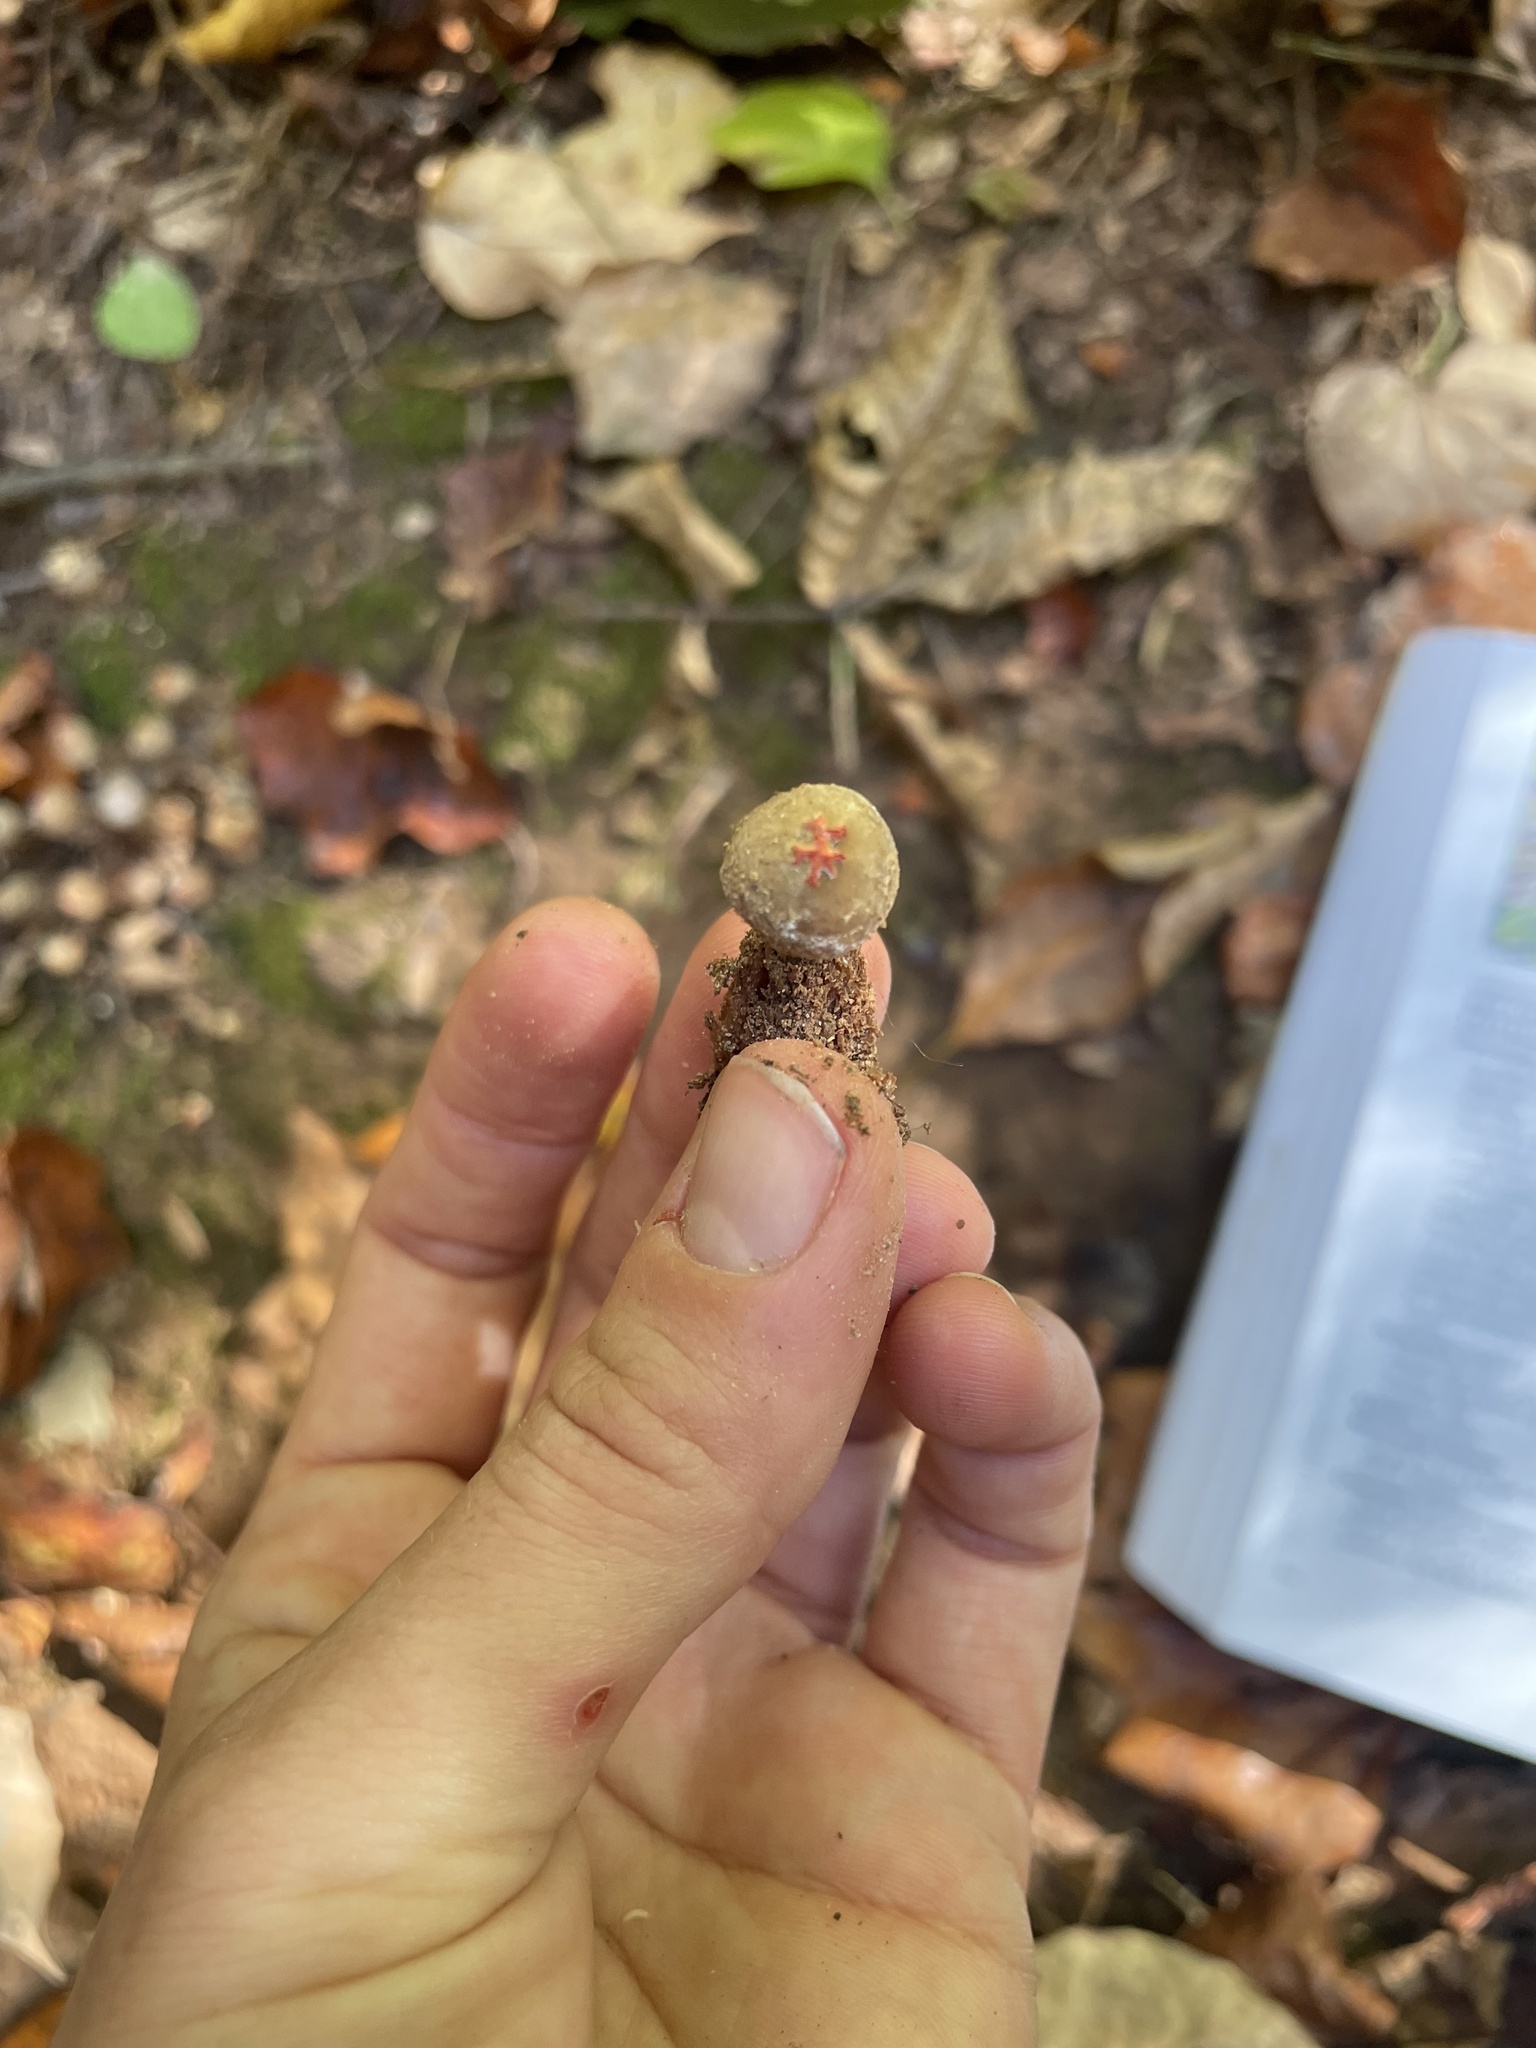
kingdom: Fungi
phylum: Basidiomycota
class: Agaricomycetes
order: Boletales
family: Calostomataceae
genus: Calostoma
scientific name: Calostoma ravenelii
